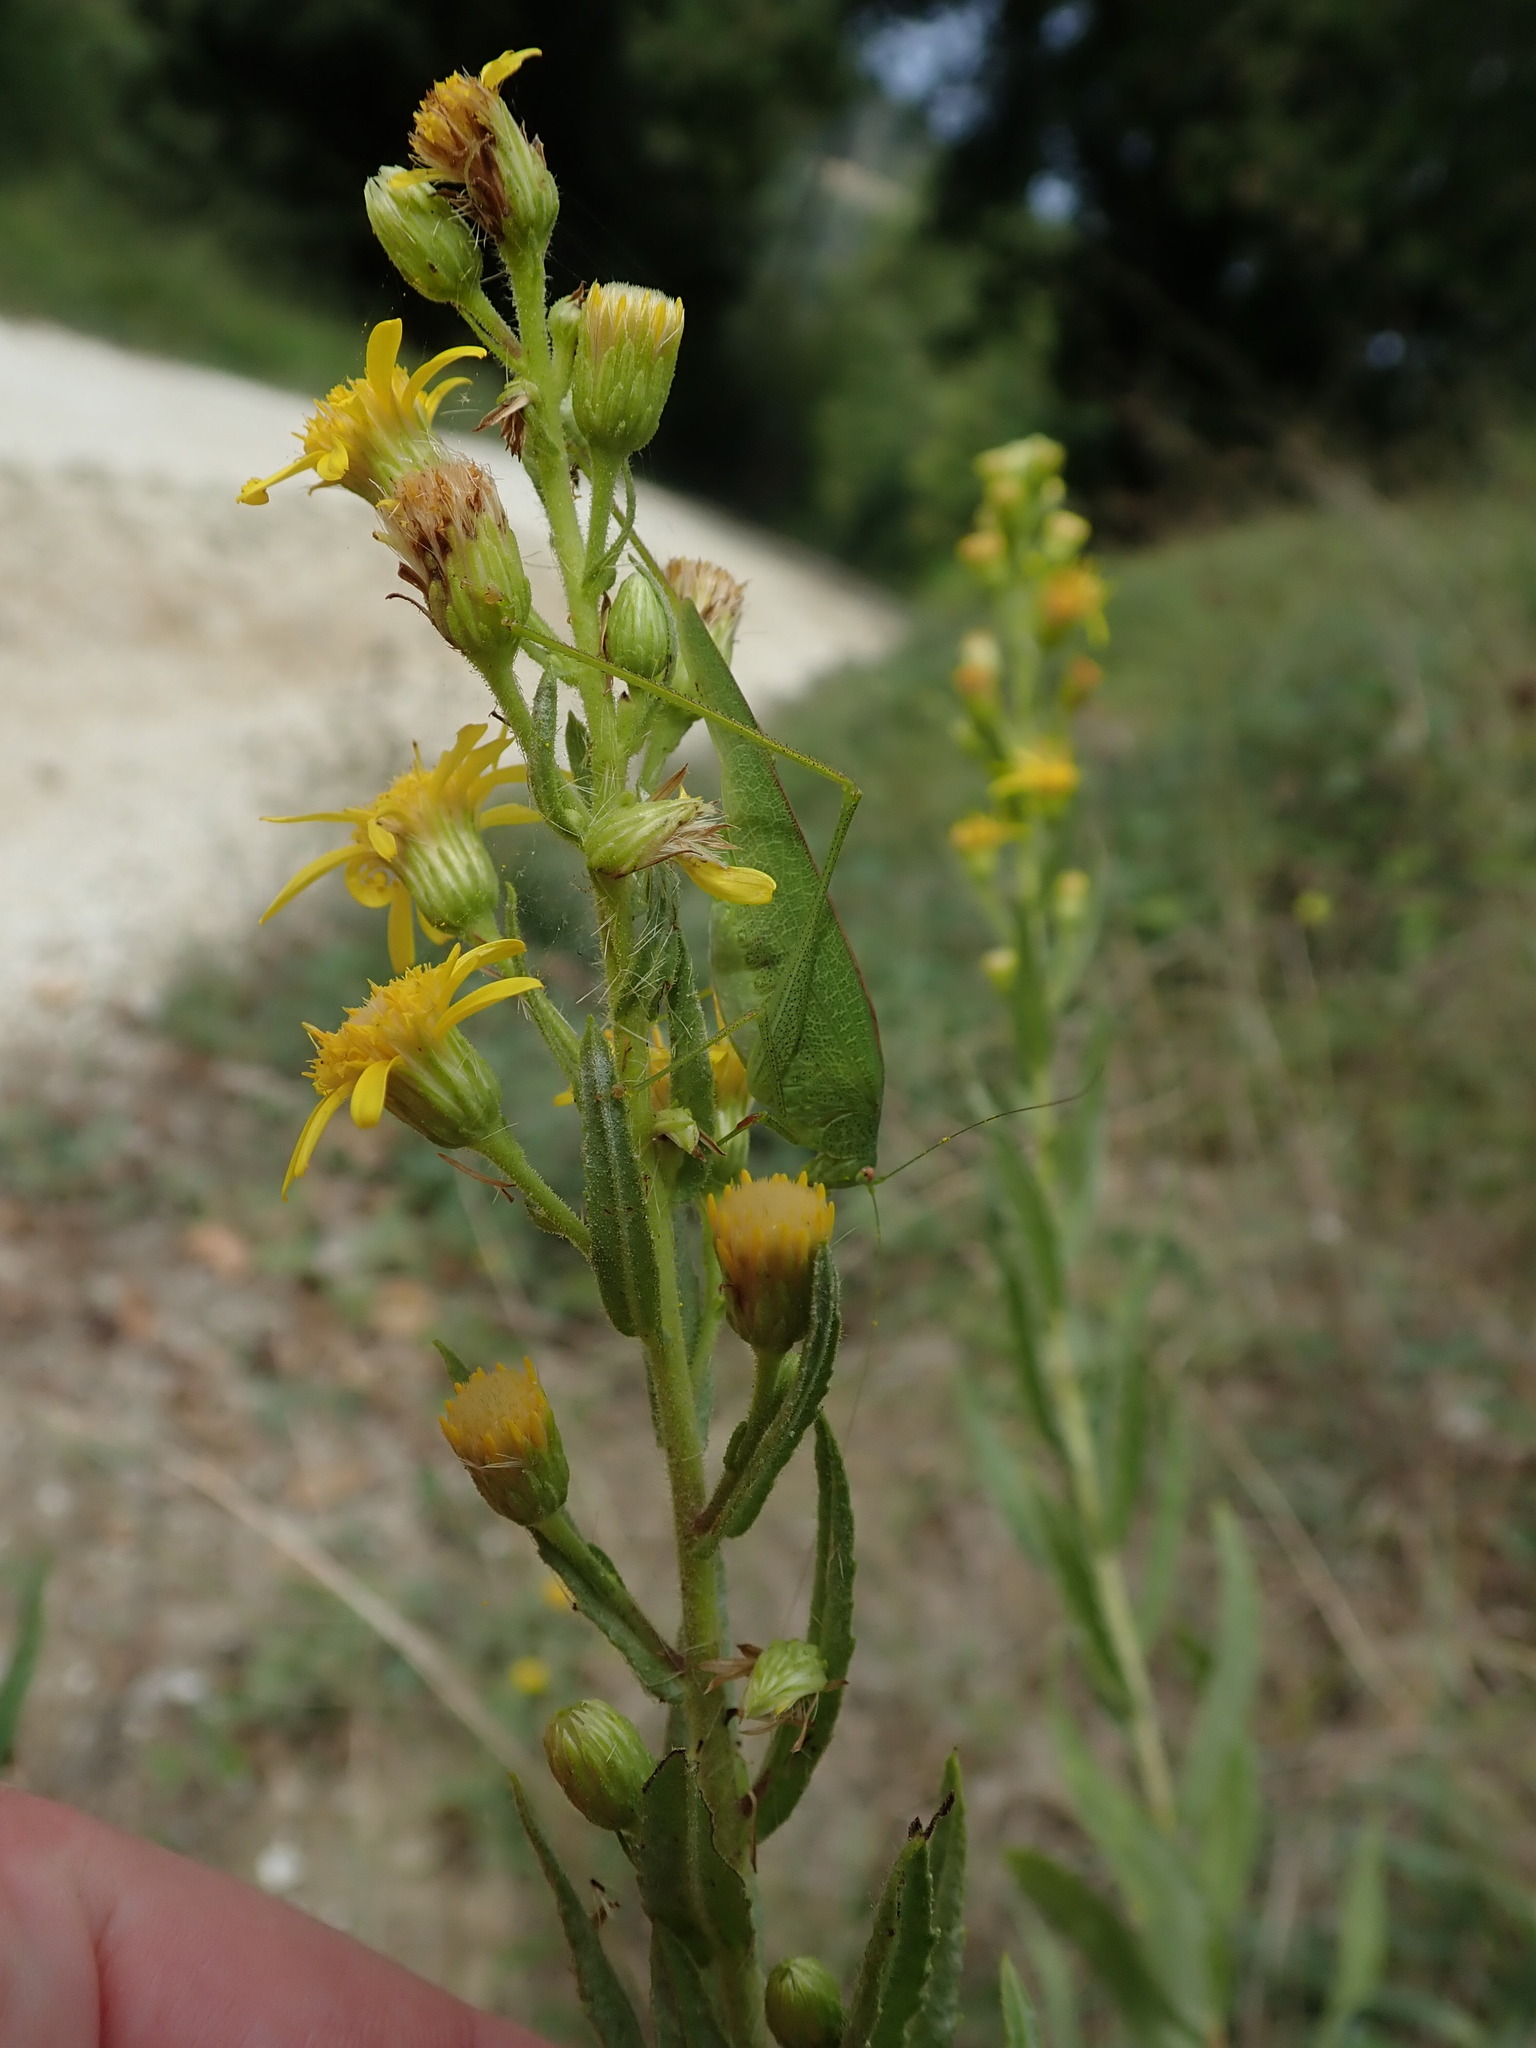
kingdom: Animalia
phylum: Arthropoda
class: Insecta
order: Orthoptera
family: Tettigoniidae
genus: Phaneroptera
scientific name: Phaneroptera nana
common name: Southern sickle bush-cricket
